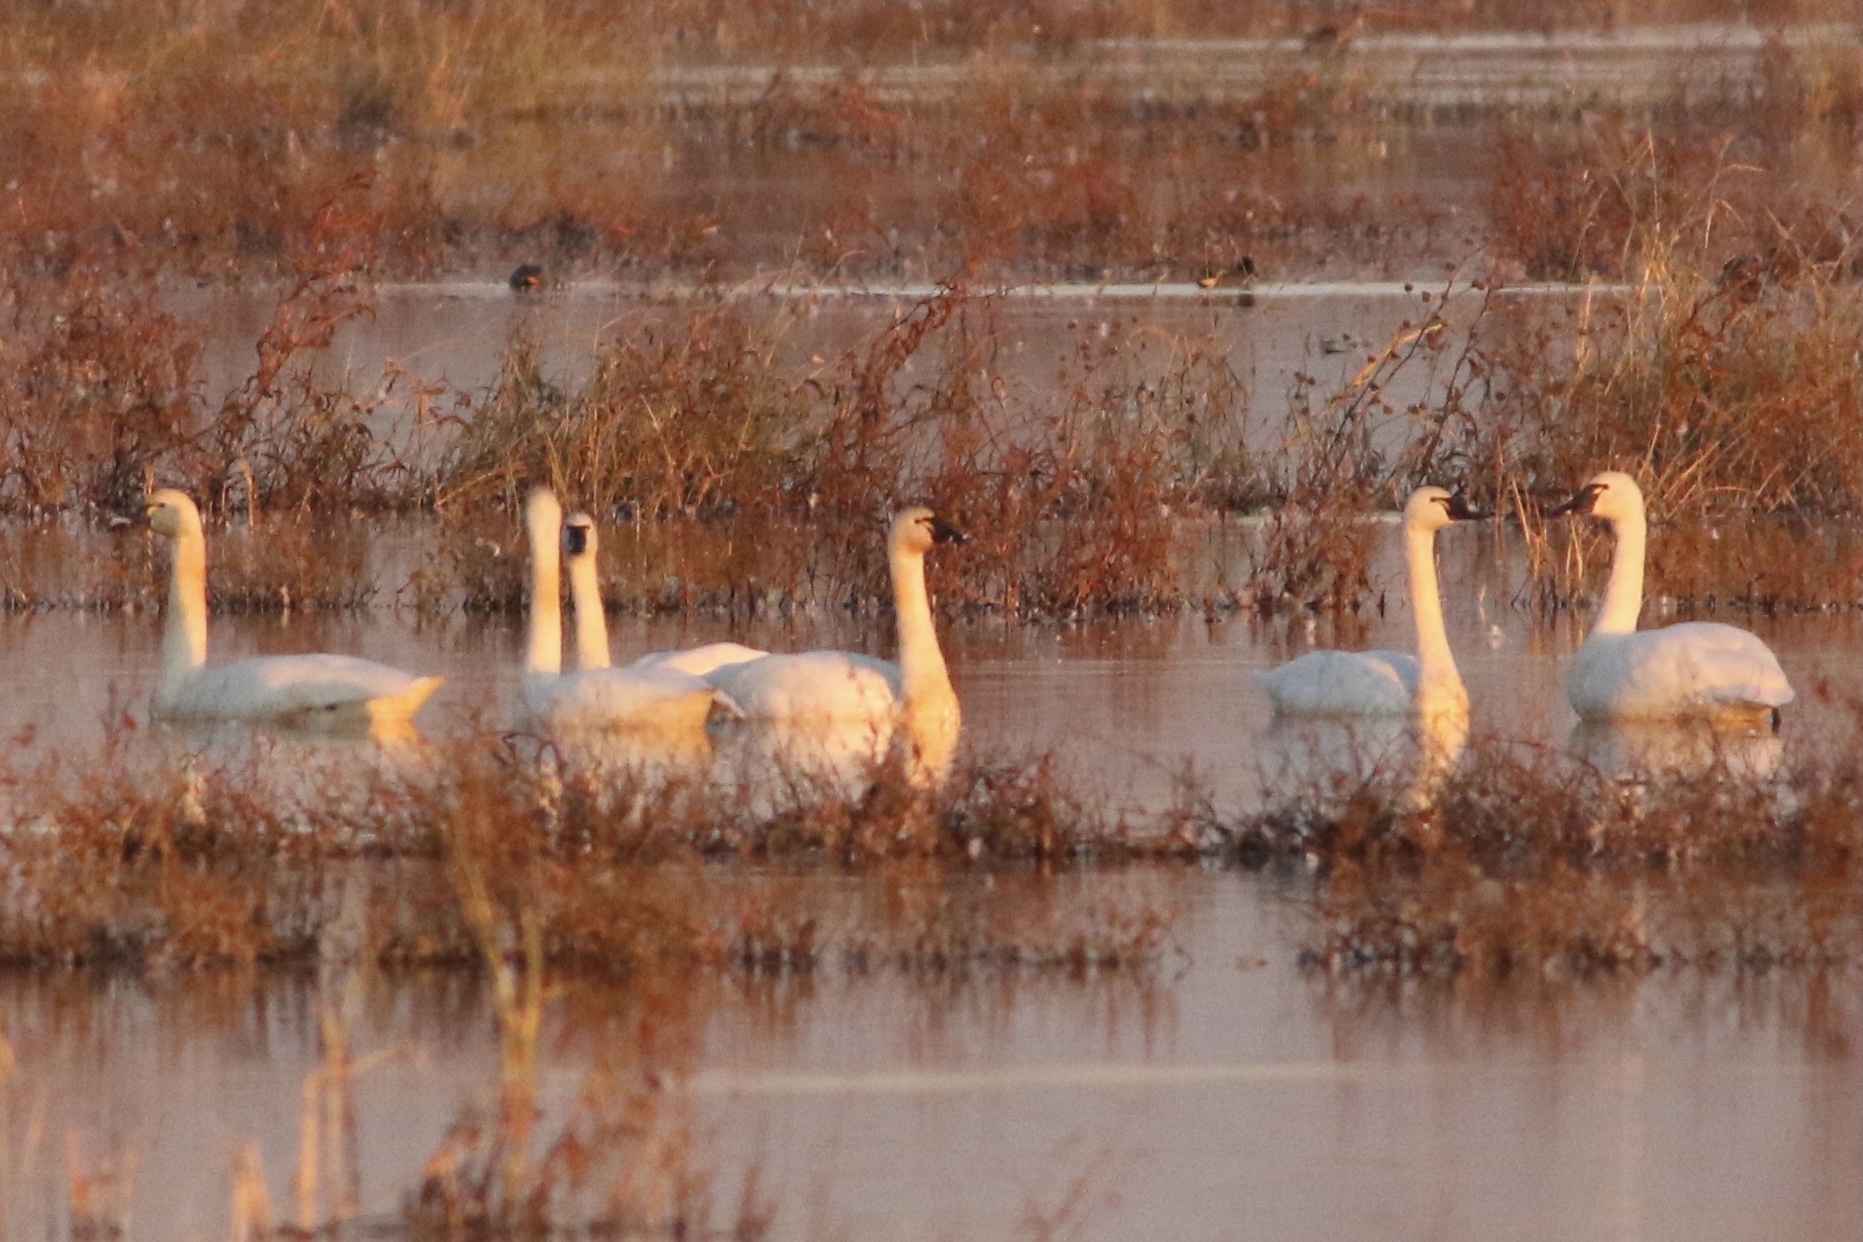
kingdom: Animalia
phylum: Chordata
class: Aves
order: Anseriformes
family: Anatidae
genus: Cygnus
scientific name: Cygnus columbianus
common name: Tundra swan
